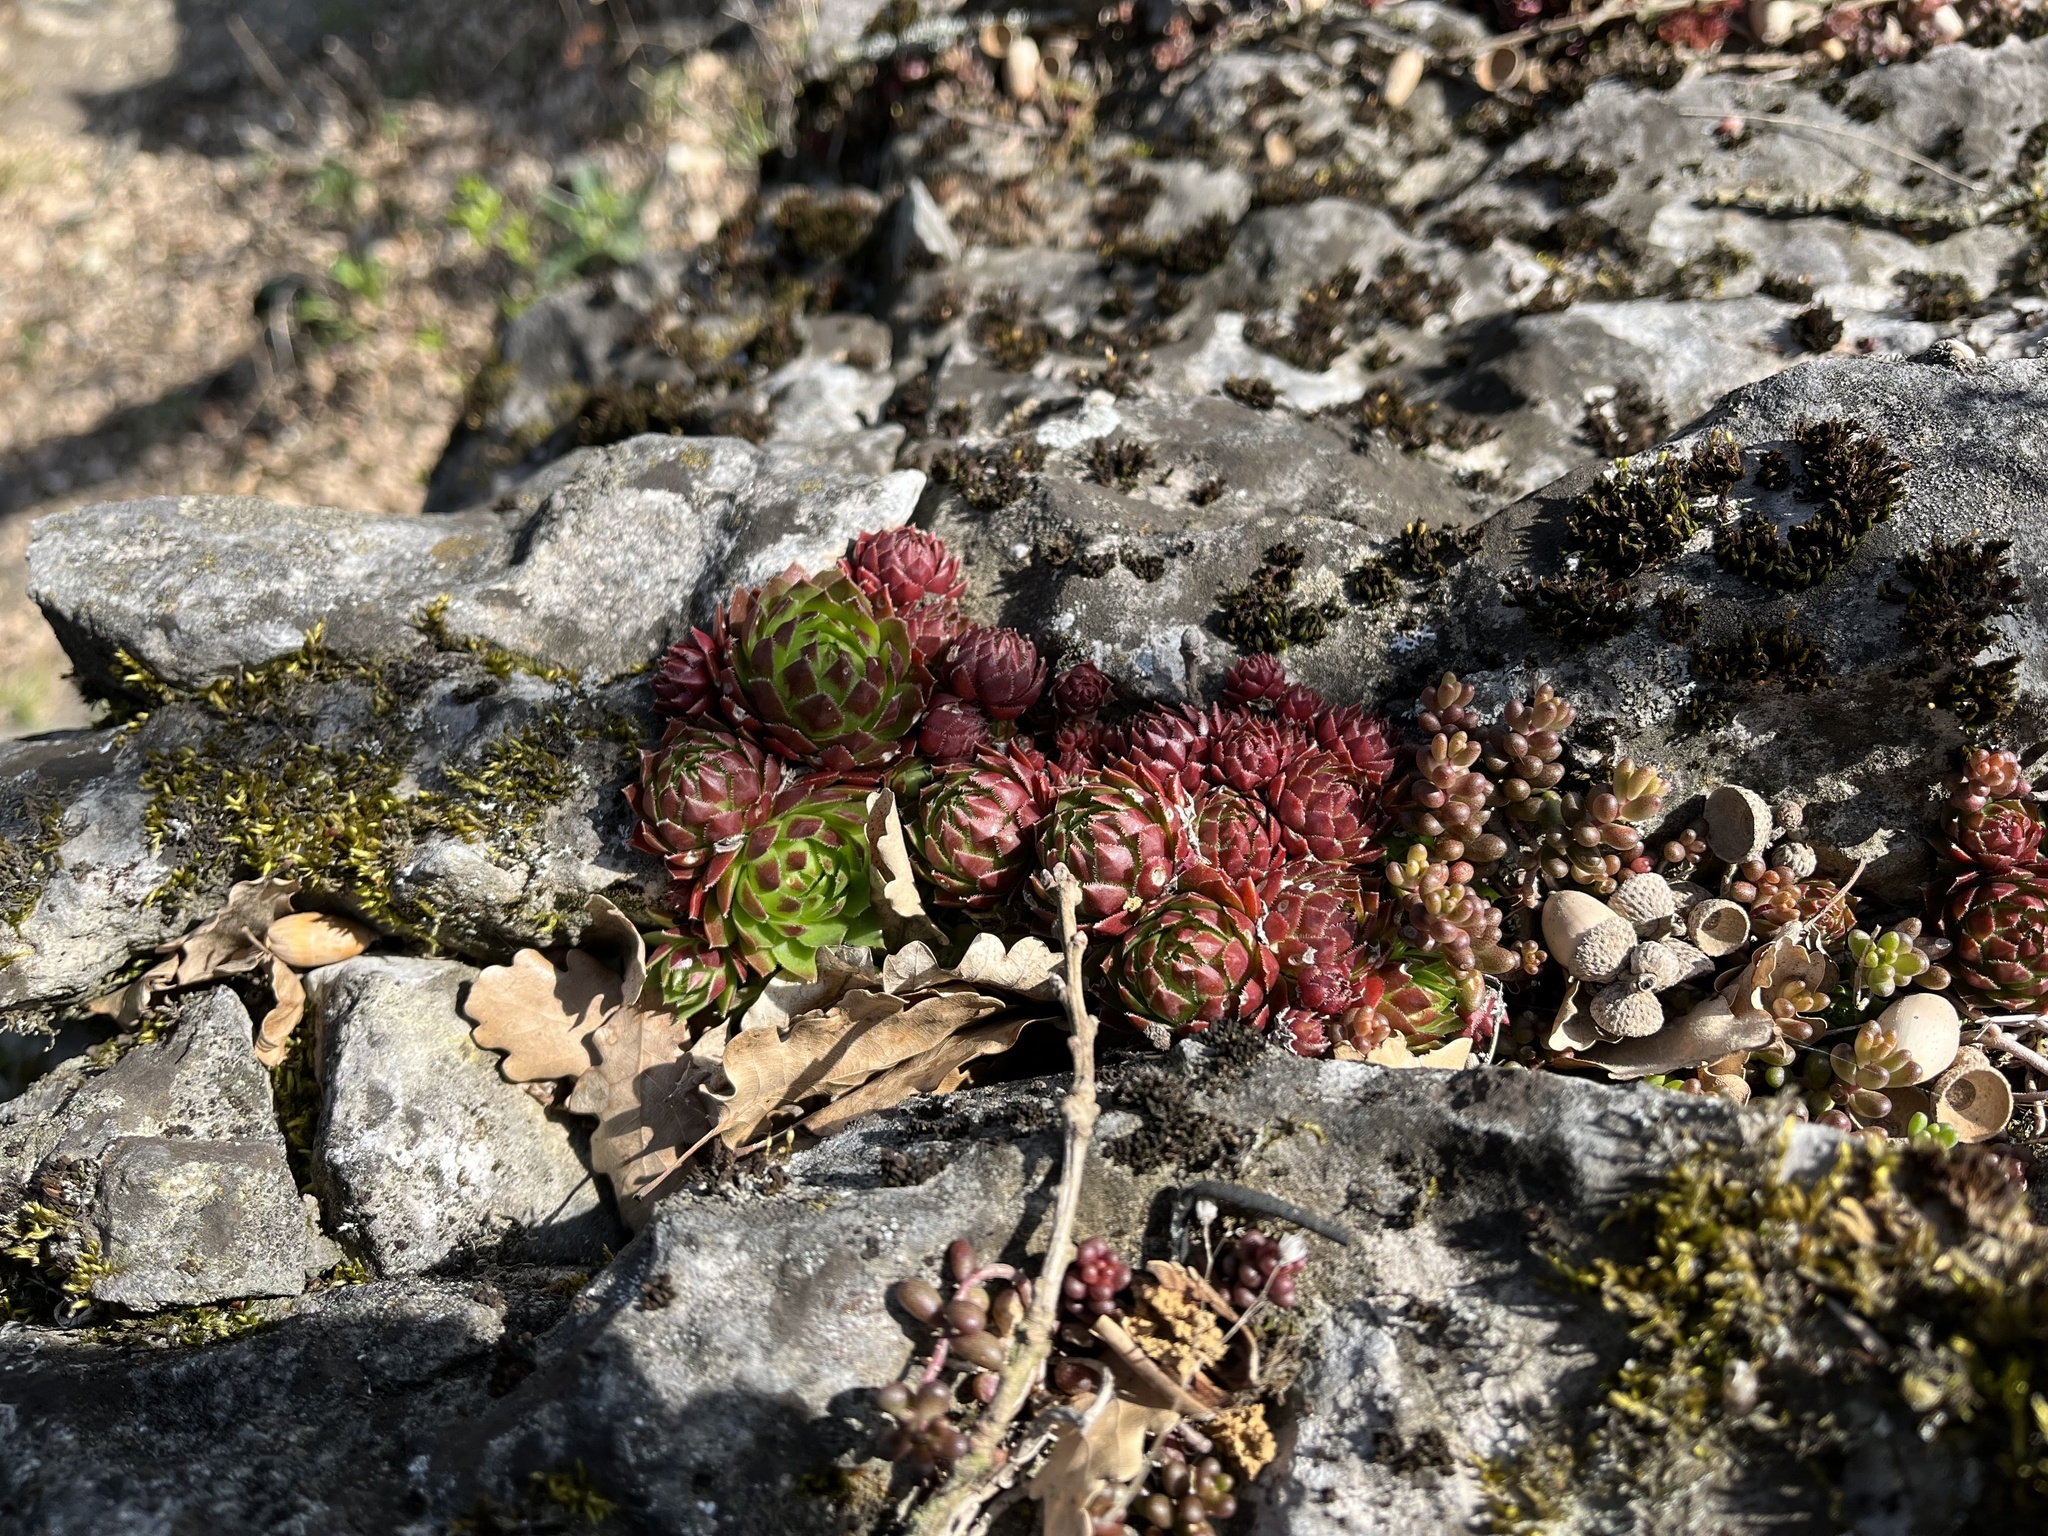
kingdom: Plantae
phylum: Tracheophyta
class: Magnoliopsida
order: Saxifragales
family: Crassulaceae
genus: Sempervivum
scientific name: Sempervivum globiferum
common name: Rolling hen-and-chicks
